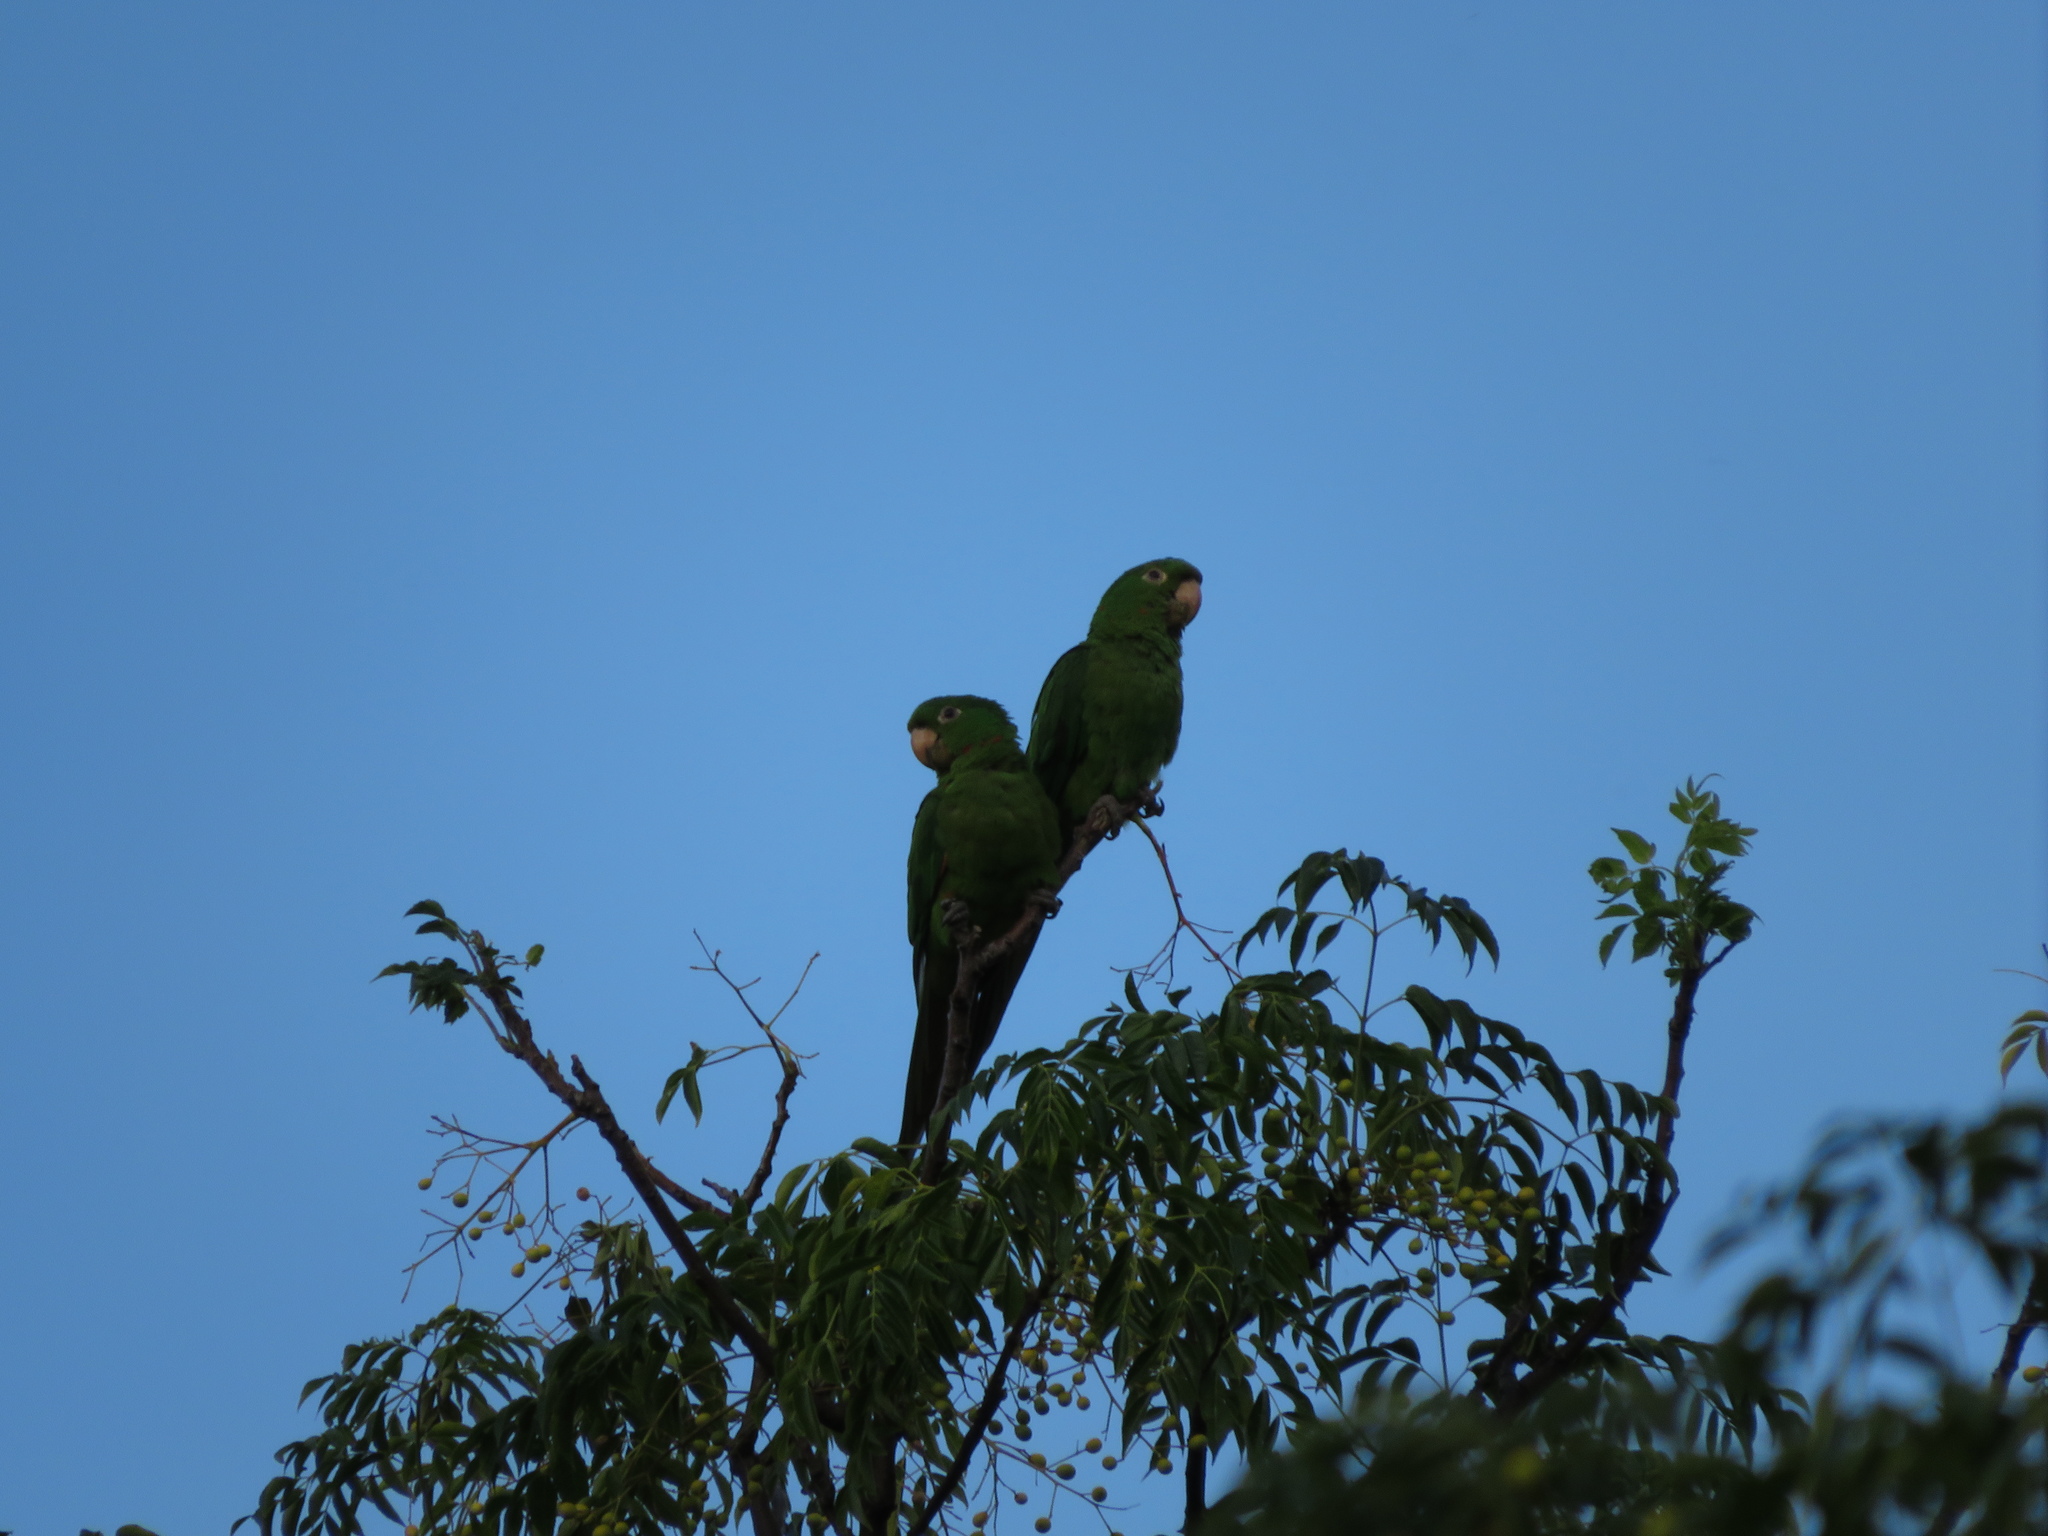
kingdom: Animalia
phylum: Chordata
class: Aves
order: Psittaciformes
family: Psittacidae
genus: Aratinga
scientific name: Aratinga leucophthalma
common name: White-eyed parakeet
